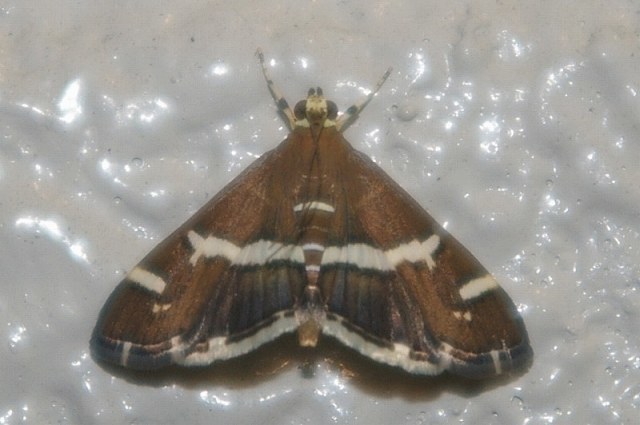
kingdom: Animalia
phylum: Arthropoda
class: Insecta
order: Lepidoptera
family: Crambidae
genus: Spoladea
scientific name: Spoladea recurvalis
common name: Beet webworm moth
